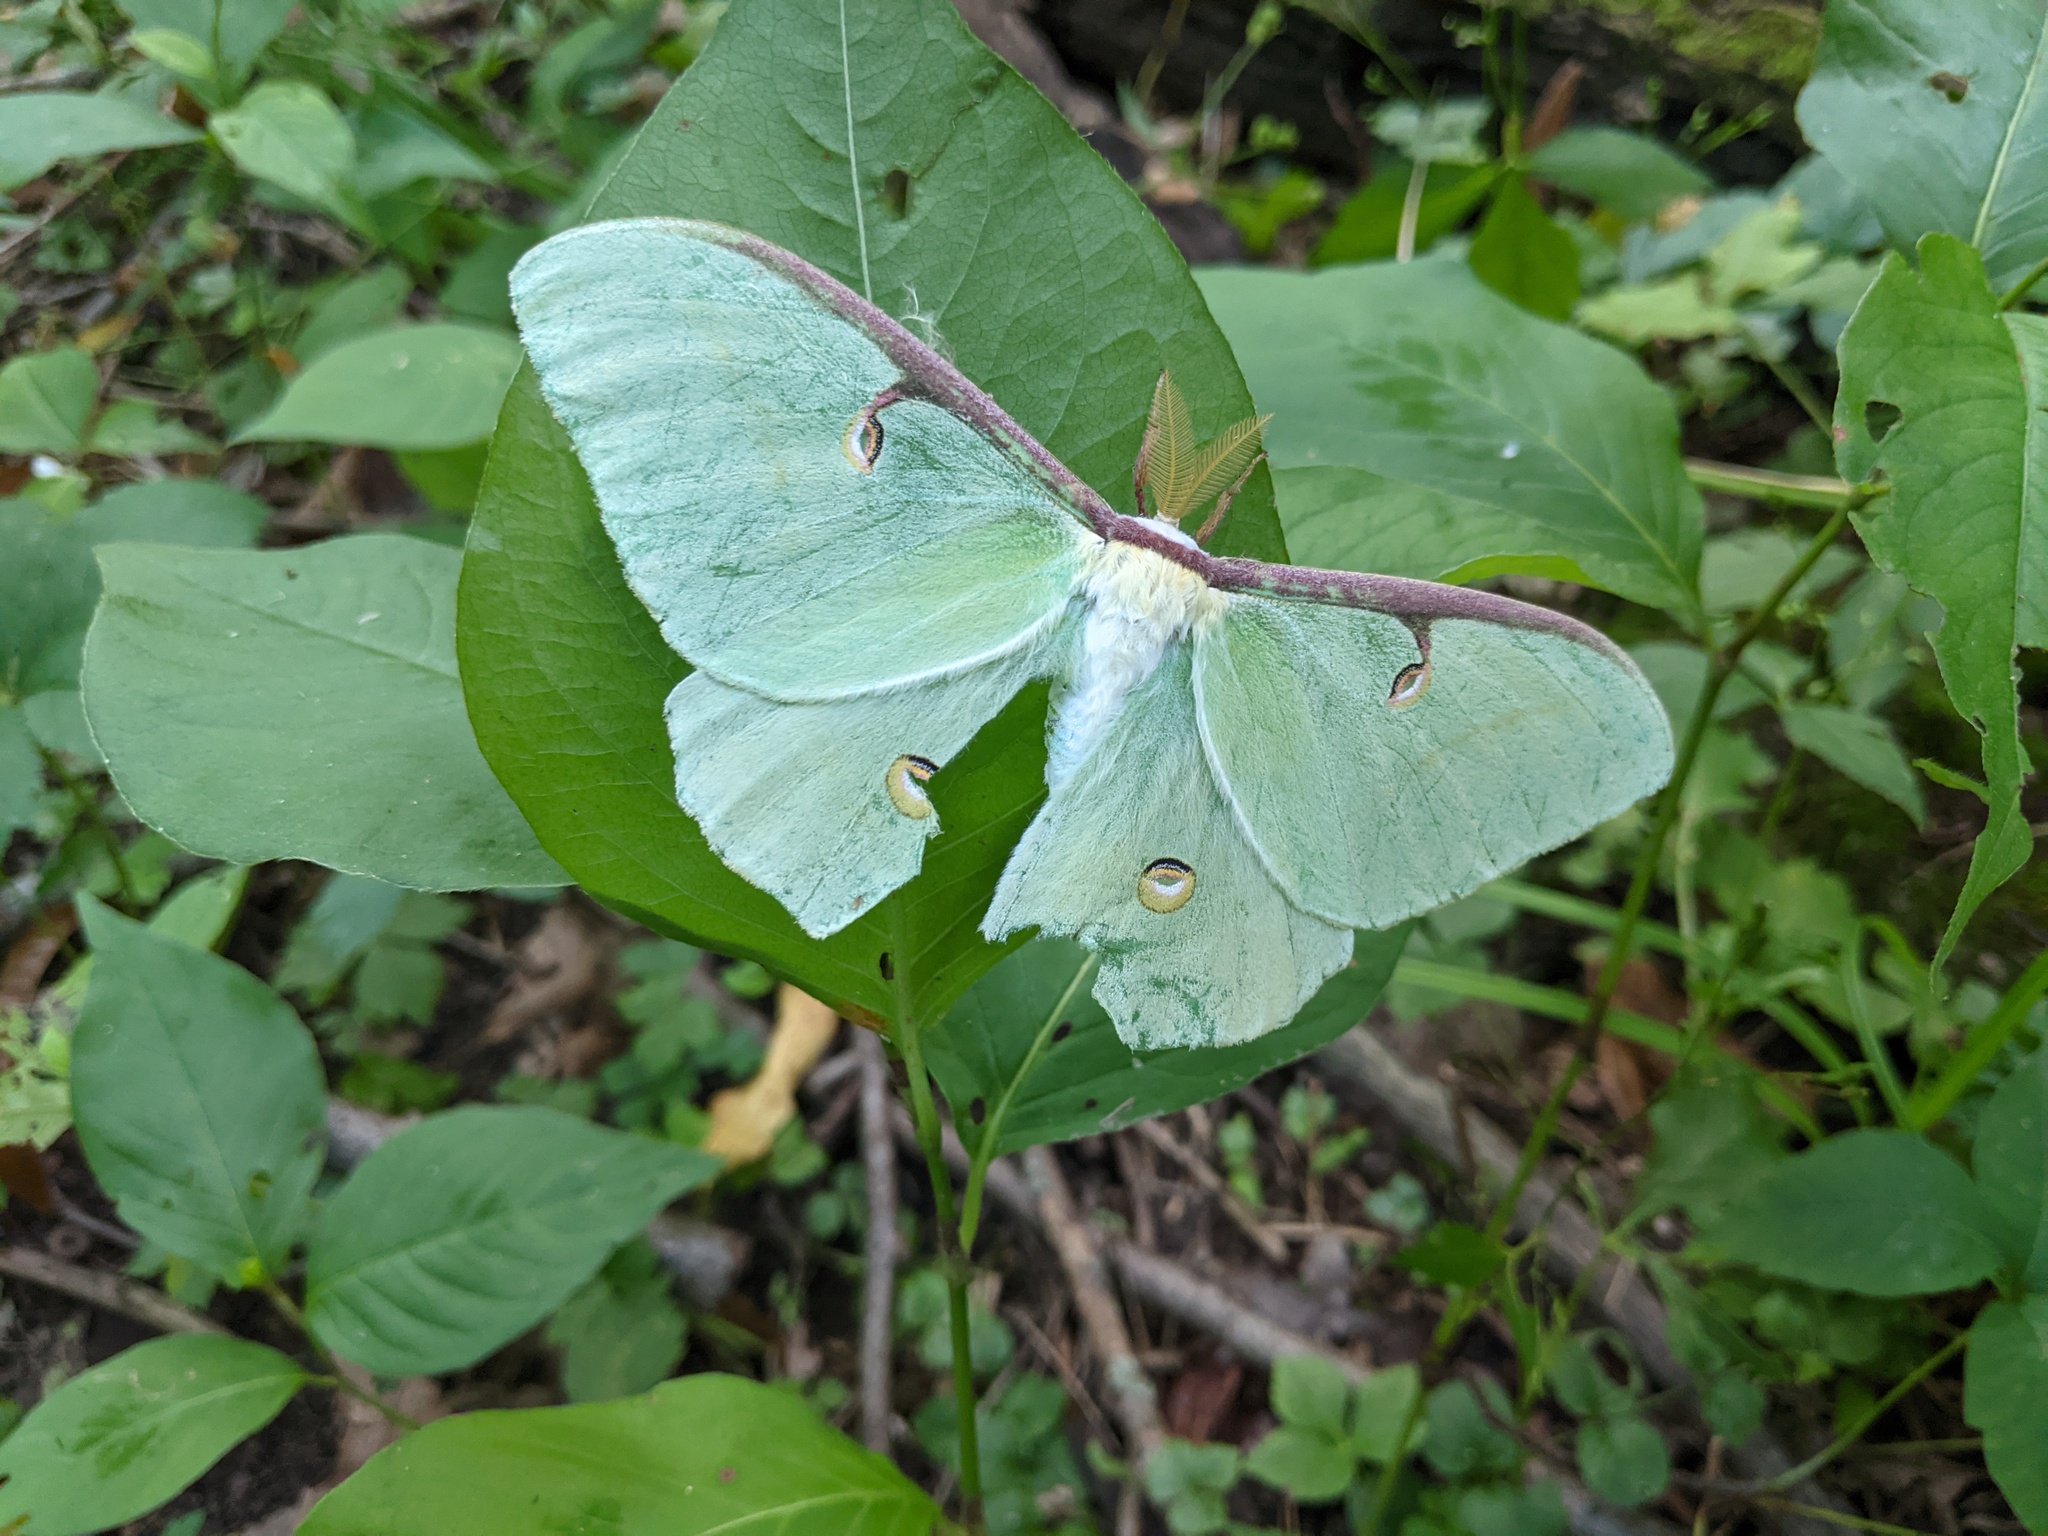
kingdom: Animalia
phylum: Arthropoda
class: Insecta
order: Lepidoptera
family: Saturniidae
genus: Actias
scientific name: Actias luna
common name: Luna moth
